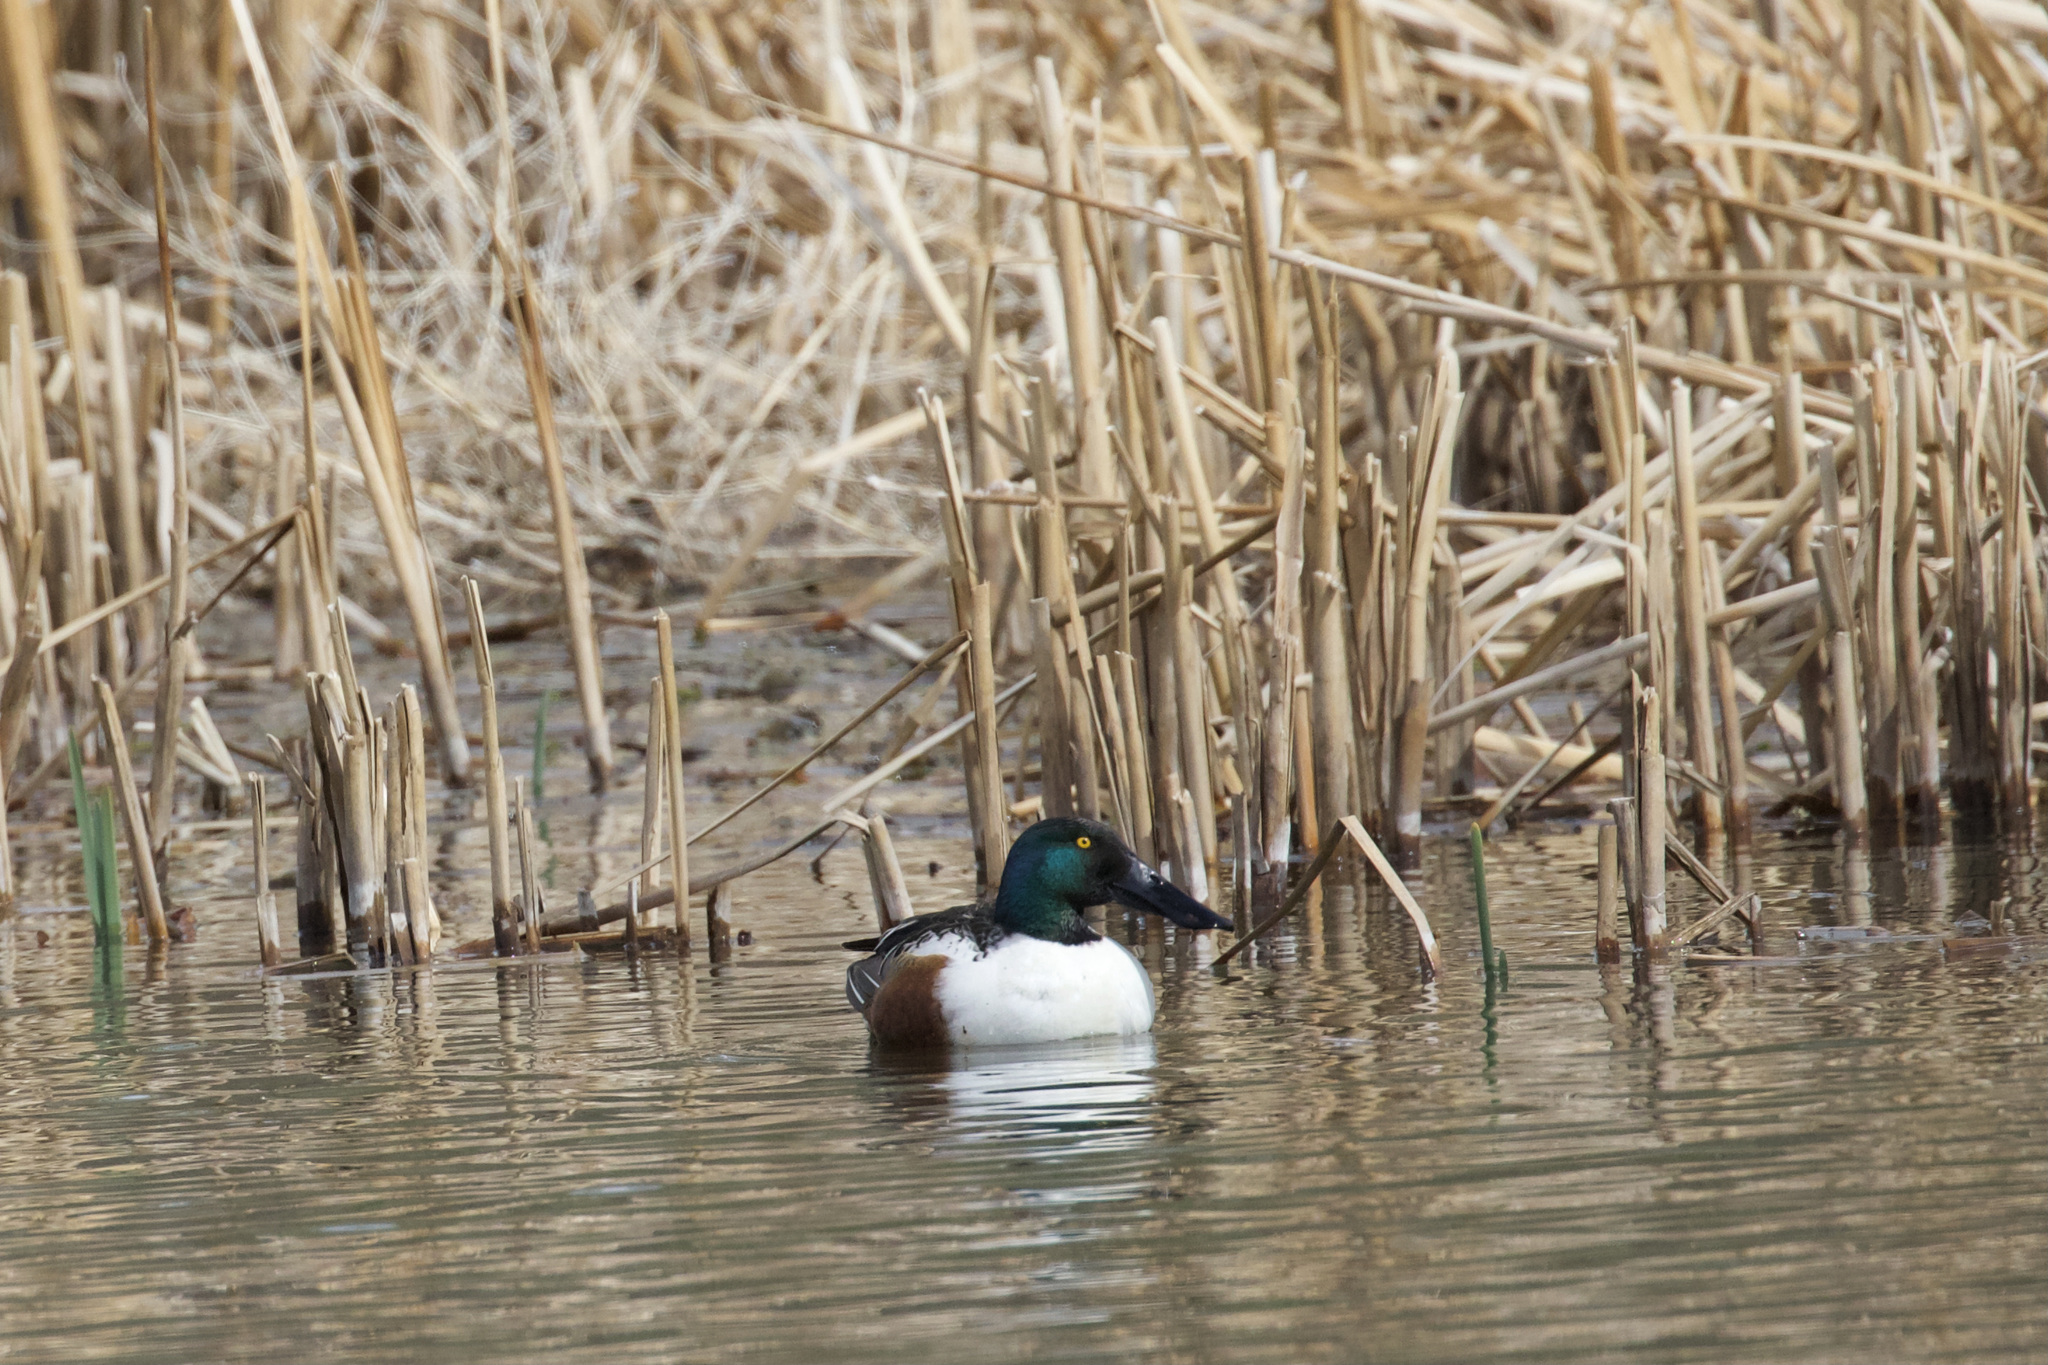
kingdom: Animalia
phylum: Chordata
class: Aves
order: Anseriformes
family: Anatidae
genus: Spatula
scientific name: Spatula clypeata
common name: Northern shoveler
